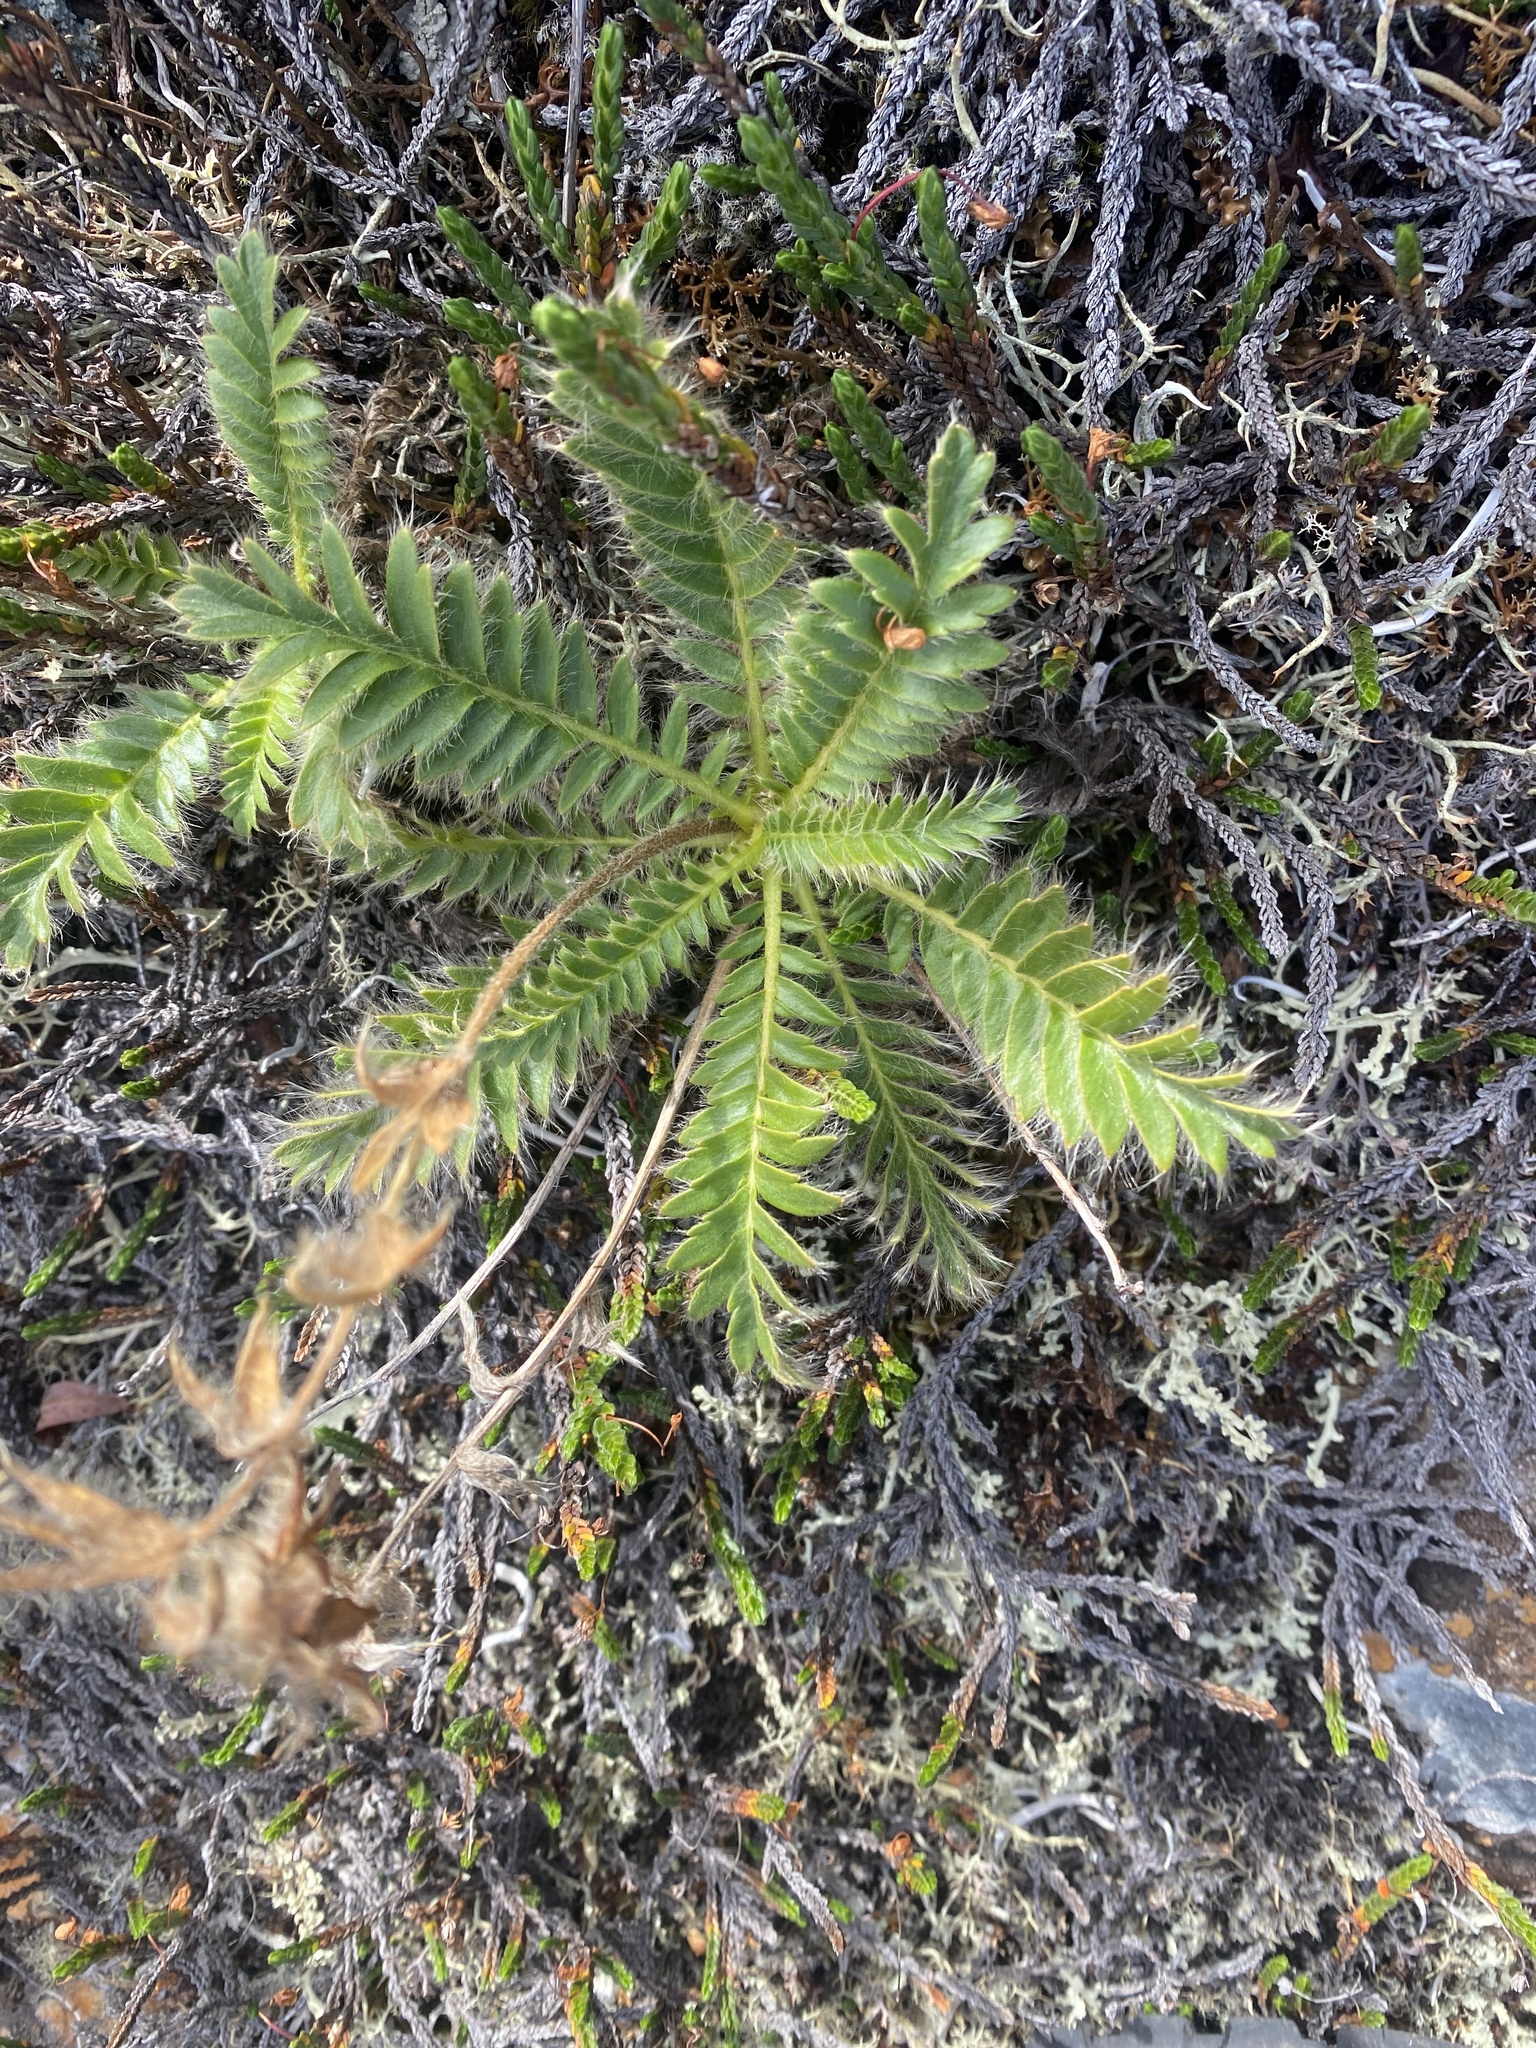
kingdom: Plantae
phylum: Tracheophyta
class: Magnoliopsida
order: Rosales
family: Rosaceae
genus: Geum
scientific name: Geum glaciale
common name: Glacier avens
